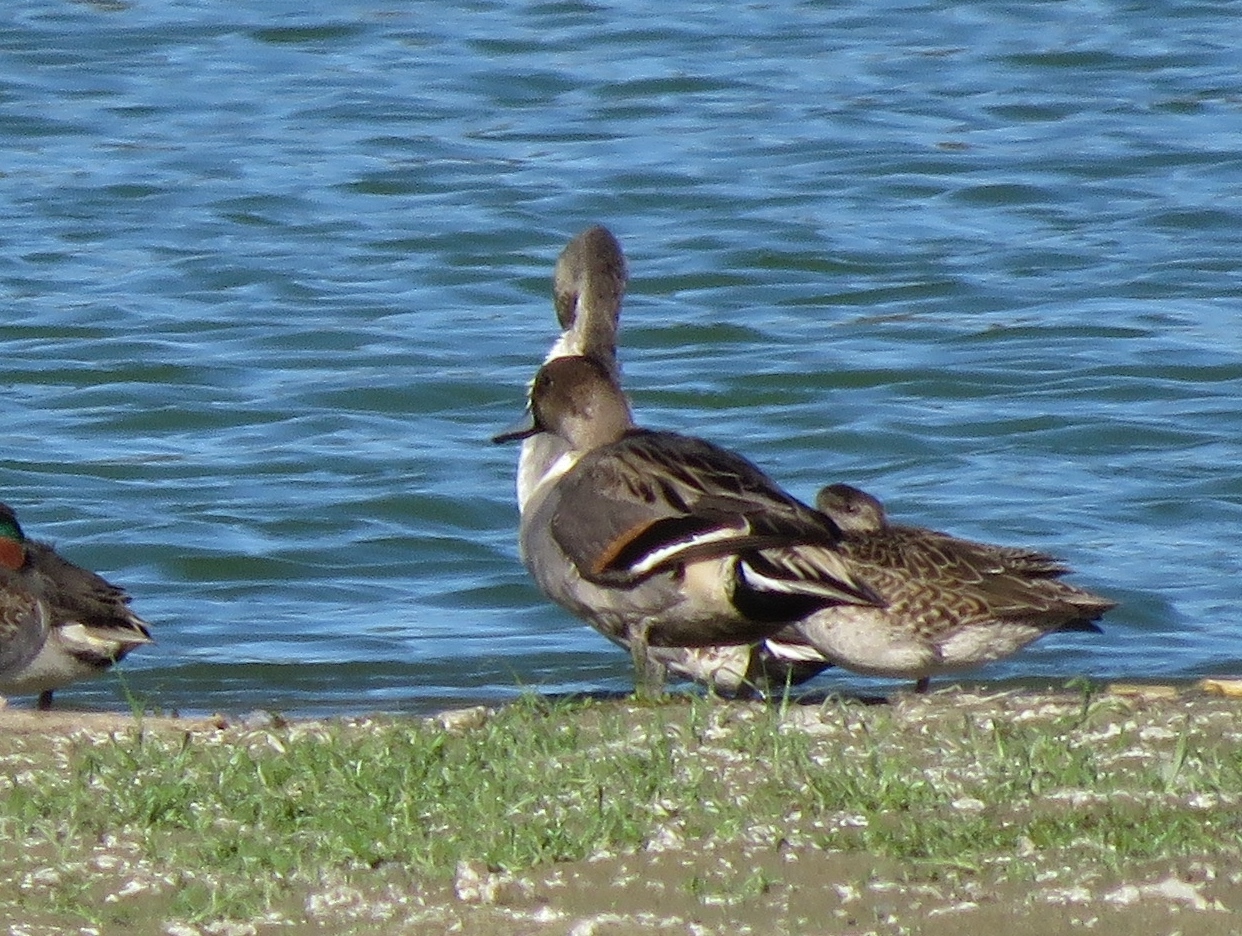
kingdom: Animalia
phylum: Chordata
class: Aves
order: Anseriformes
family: Anatidae
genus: Anas
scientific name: Anas acuta
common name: Northern pintail
